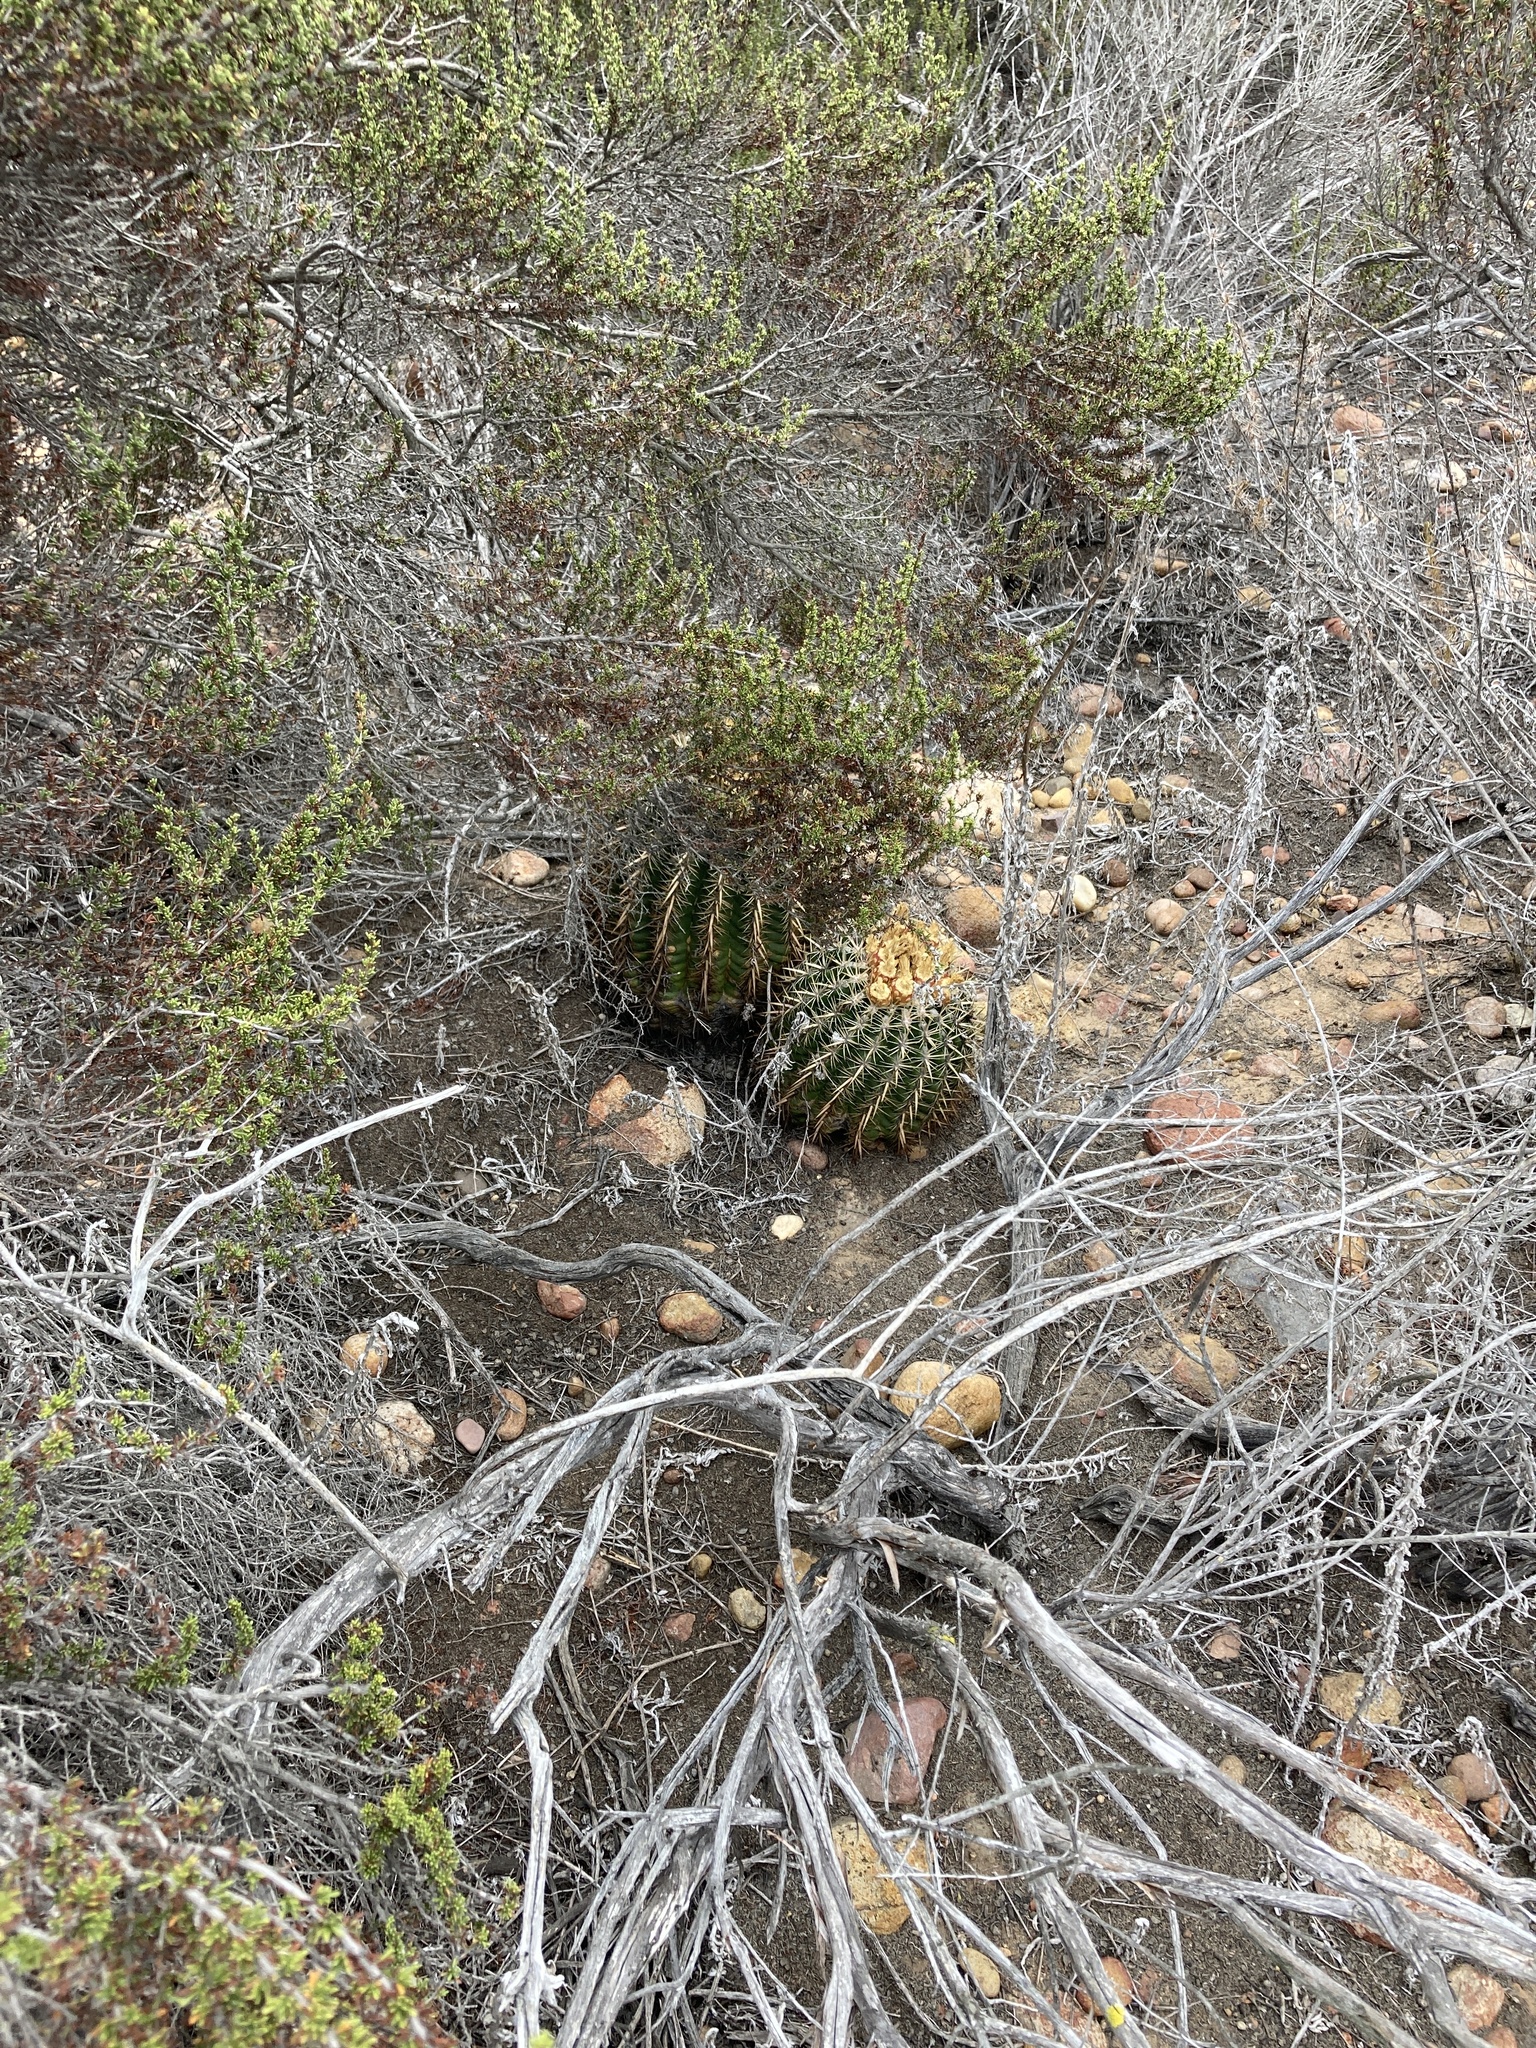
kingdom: Plantae
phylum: Tracheophyta
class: Magnoliopsida
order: Caryophyllales
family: Cactaceae
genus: Ferocactus
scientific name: Ferocactus viridescens
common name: San diego barrel cactus
